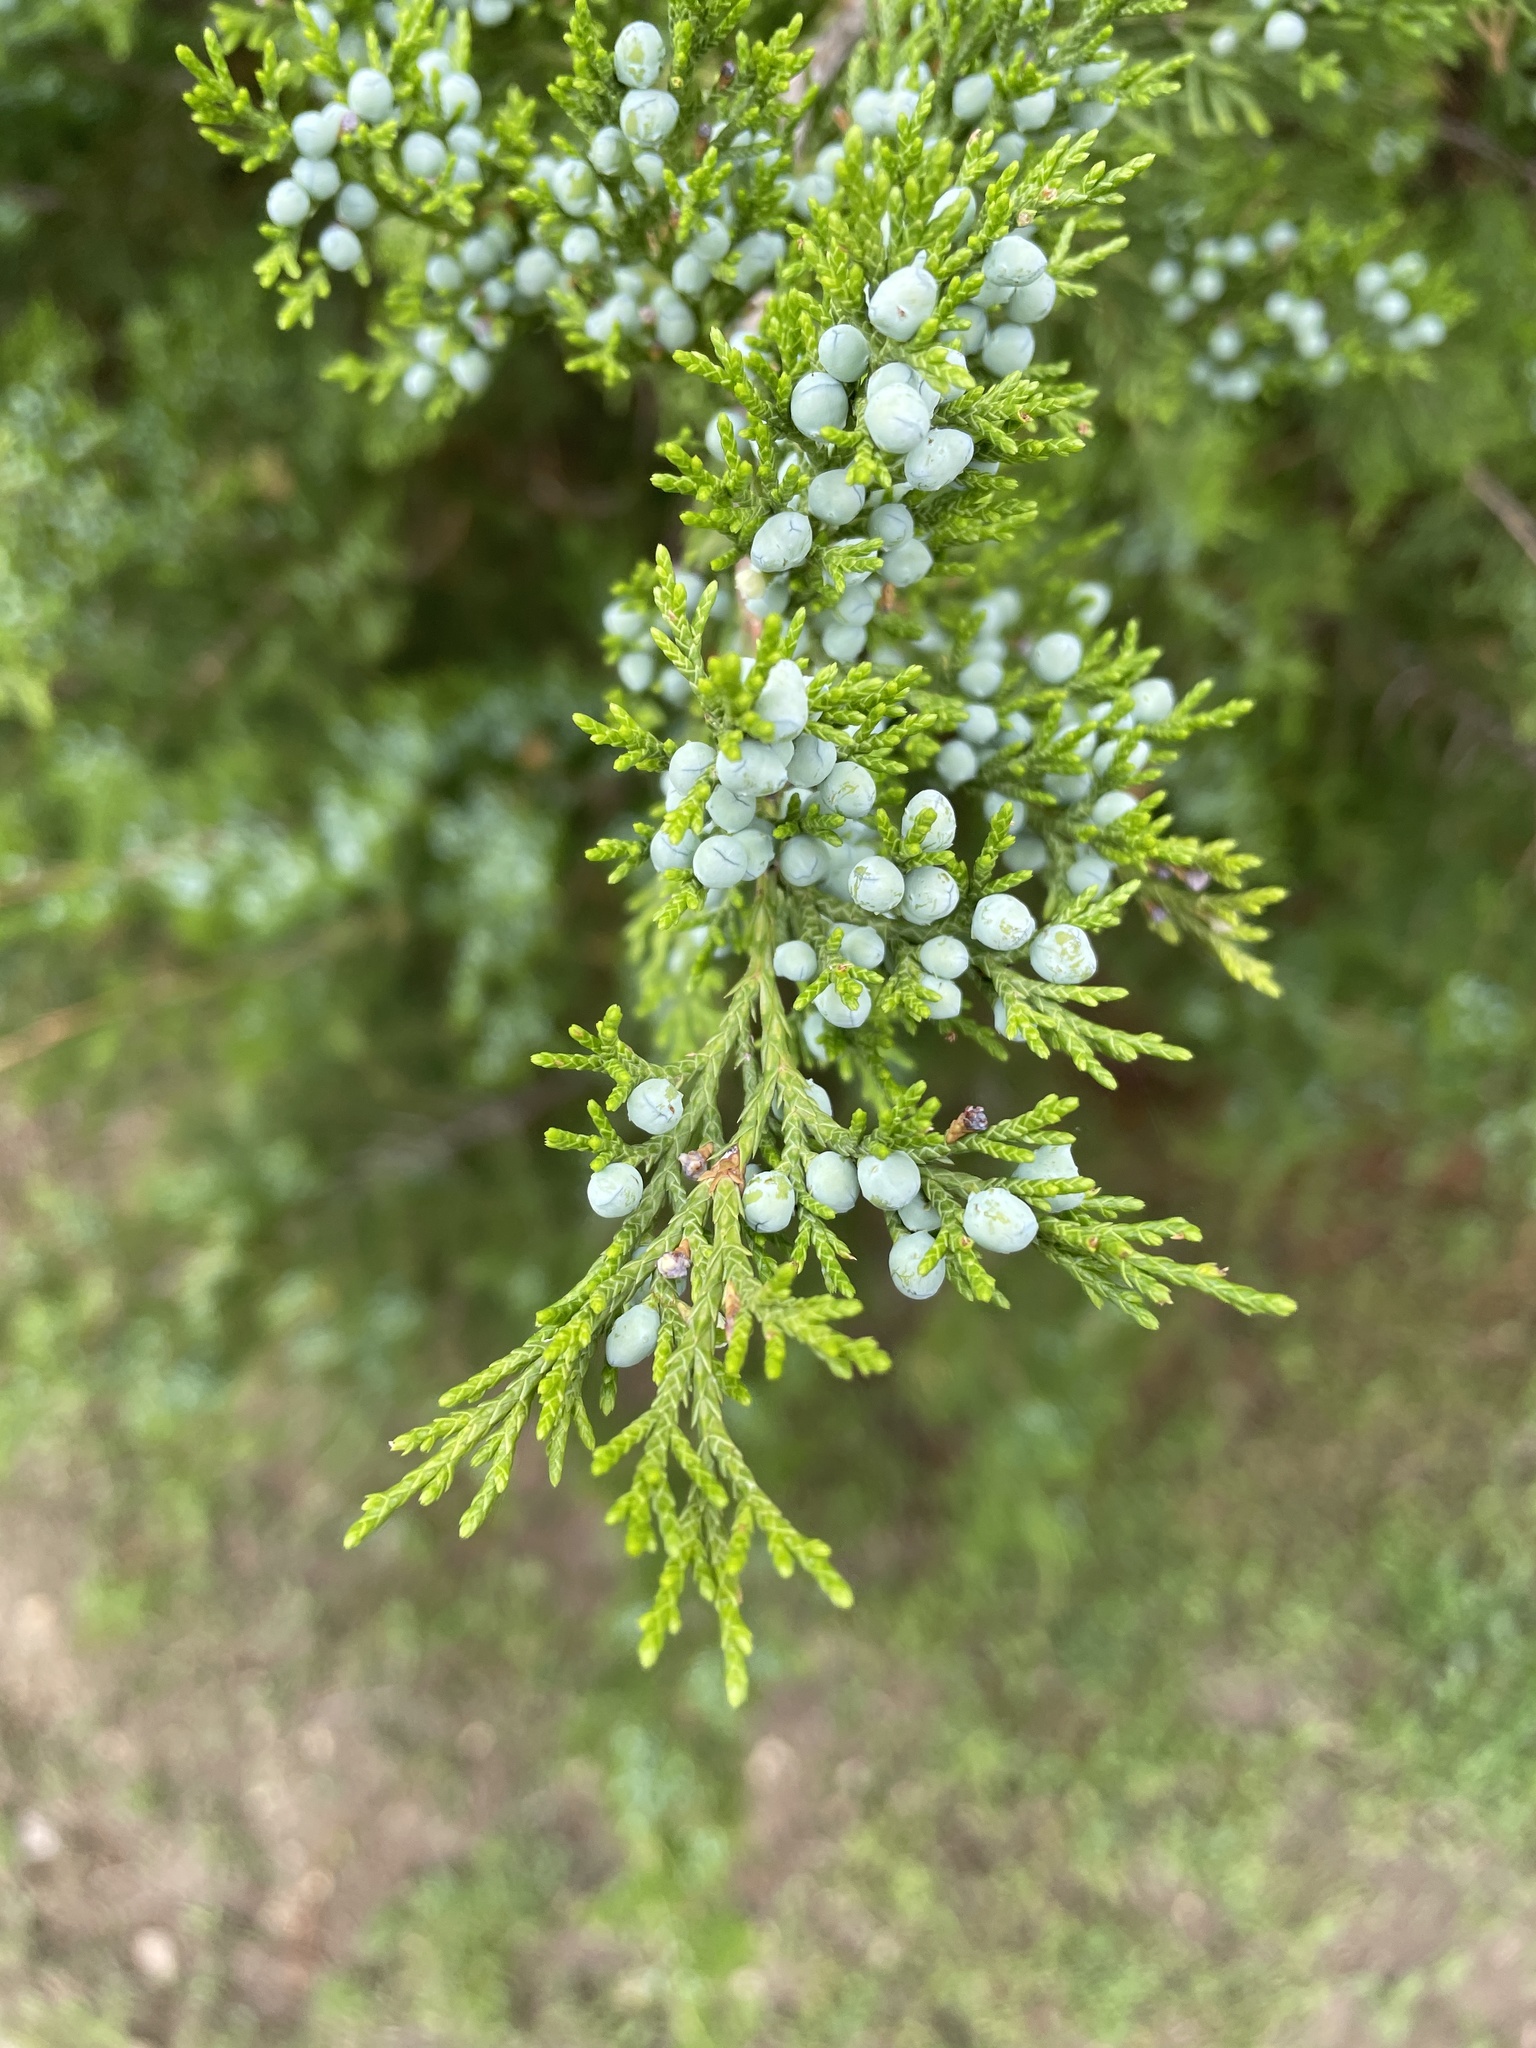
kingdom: Plantae
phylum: Tracheophyta
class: Pinopsida
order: Pinales
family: Cupressaceae
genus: Juniperus
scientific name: Juniperus virginiana
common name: Red juniper
